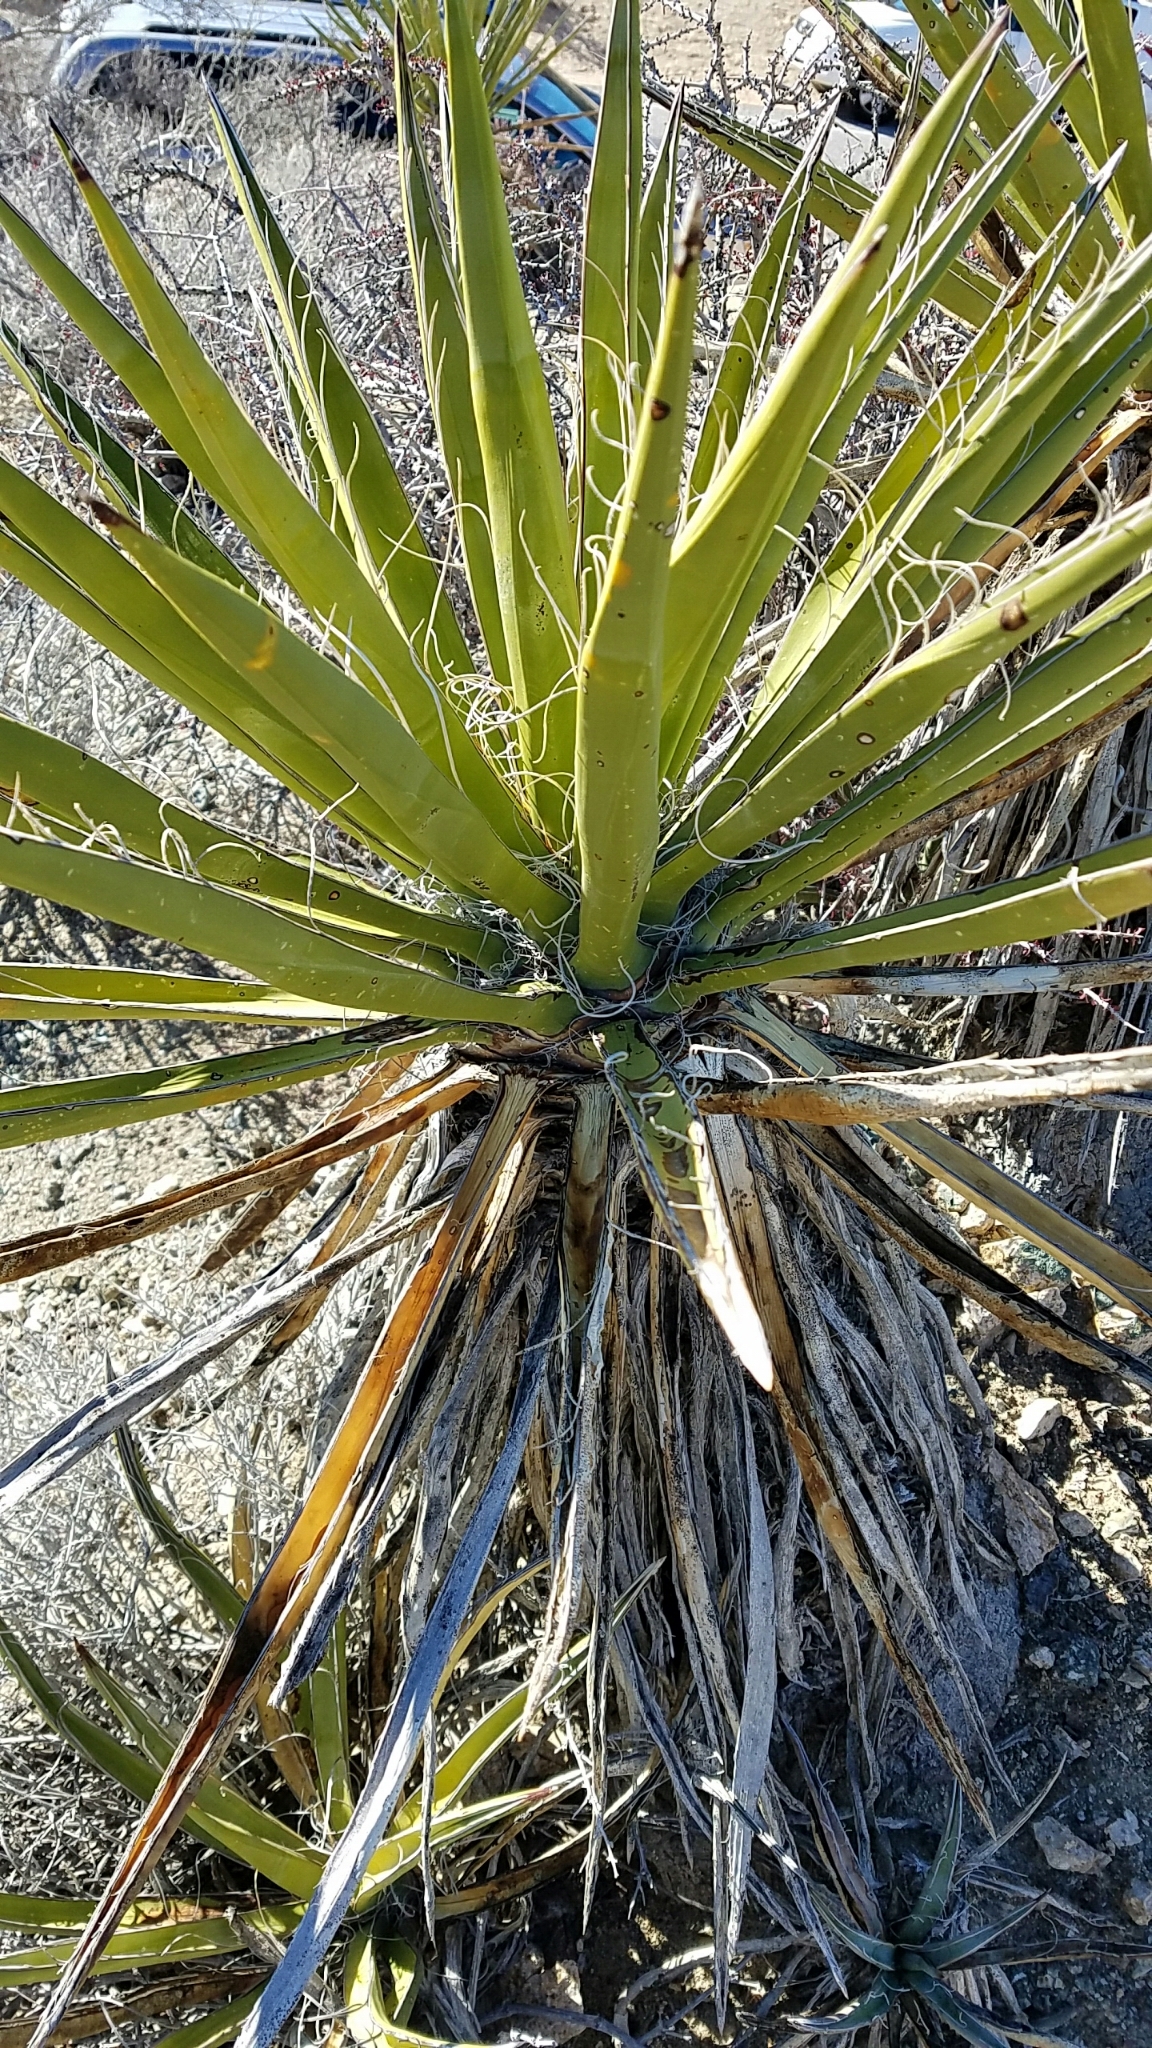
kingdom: Plantae
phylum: Tracheophyta
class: Liliopsida
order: Asparagales
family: Asparagaceae
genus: Yucca
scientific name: Yucca schidigera
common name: Mojave yucca
